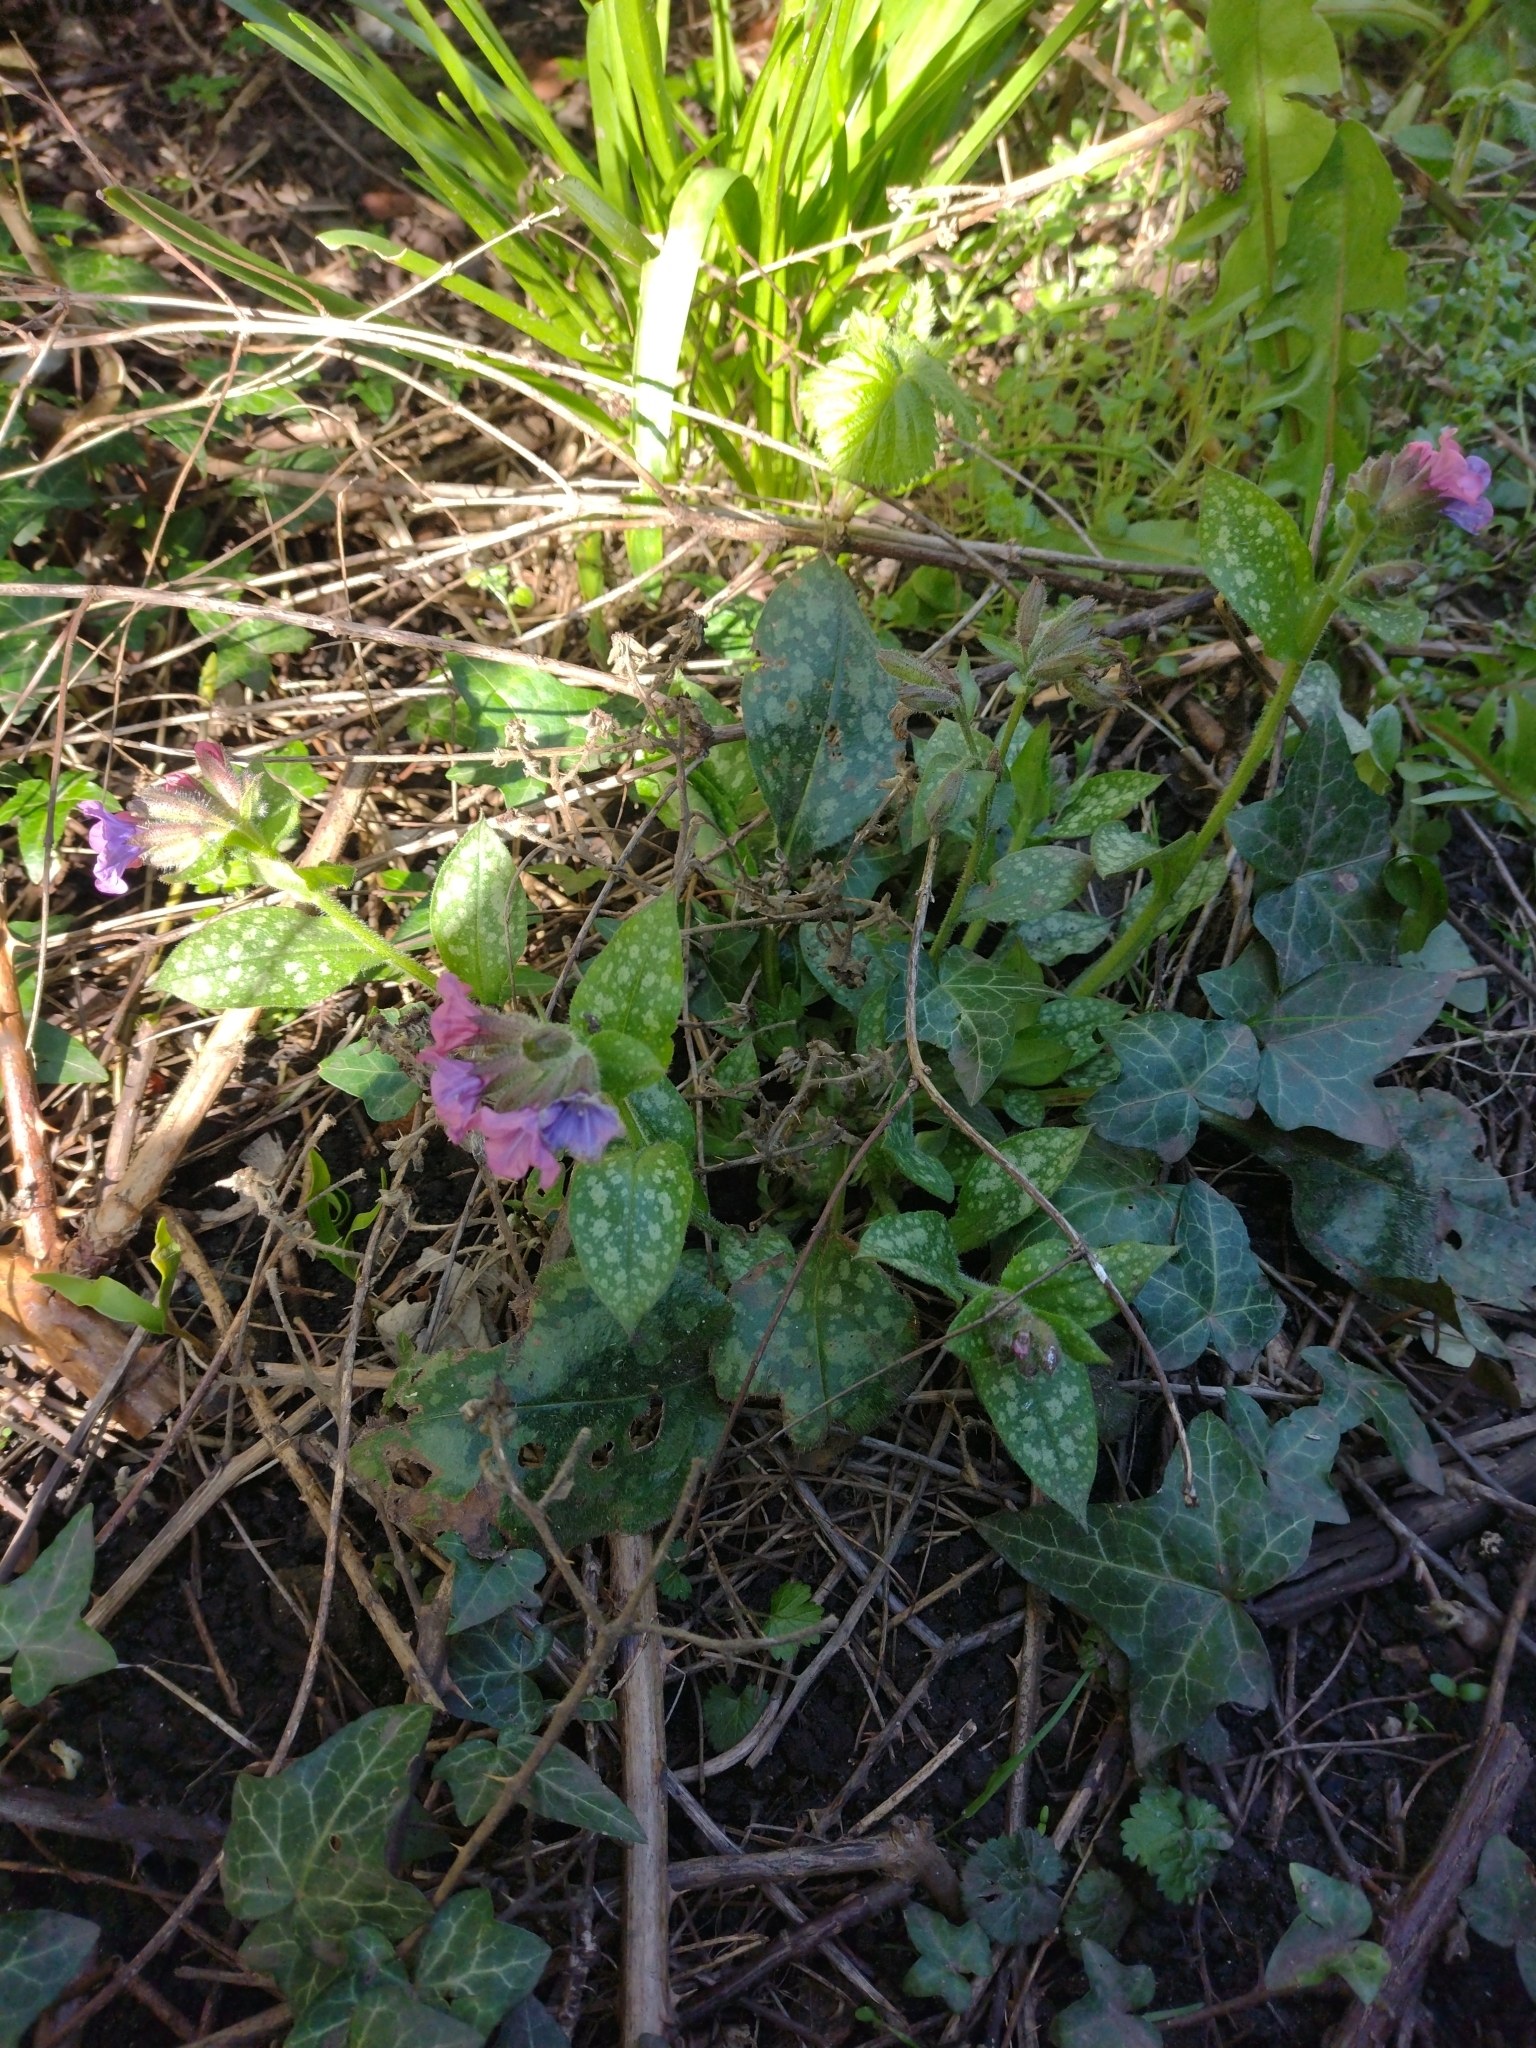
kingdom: Plantae
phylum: Tracheophyta
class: Magnoliopsida
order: Boraginales
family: Boraginaceae
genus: Pulmonaria
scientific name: Pulmonaria officinalis
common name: Lungwort
